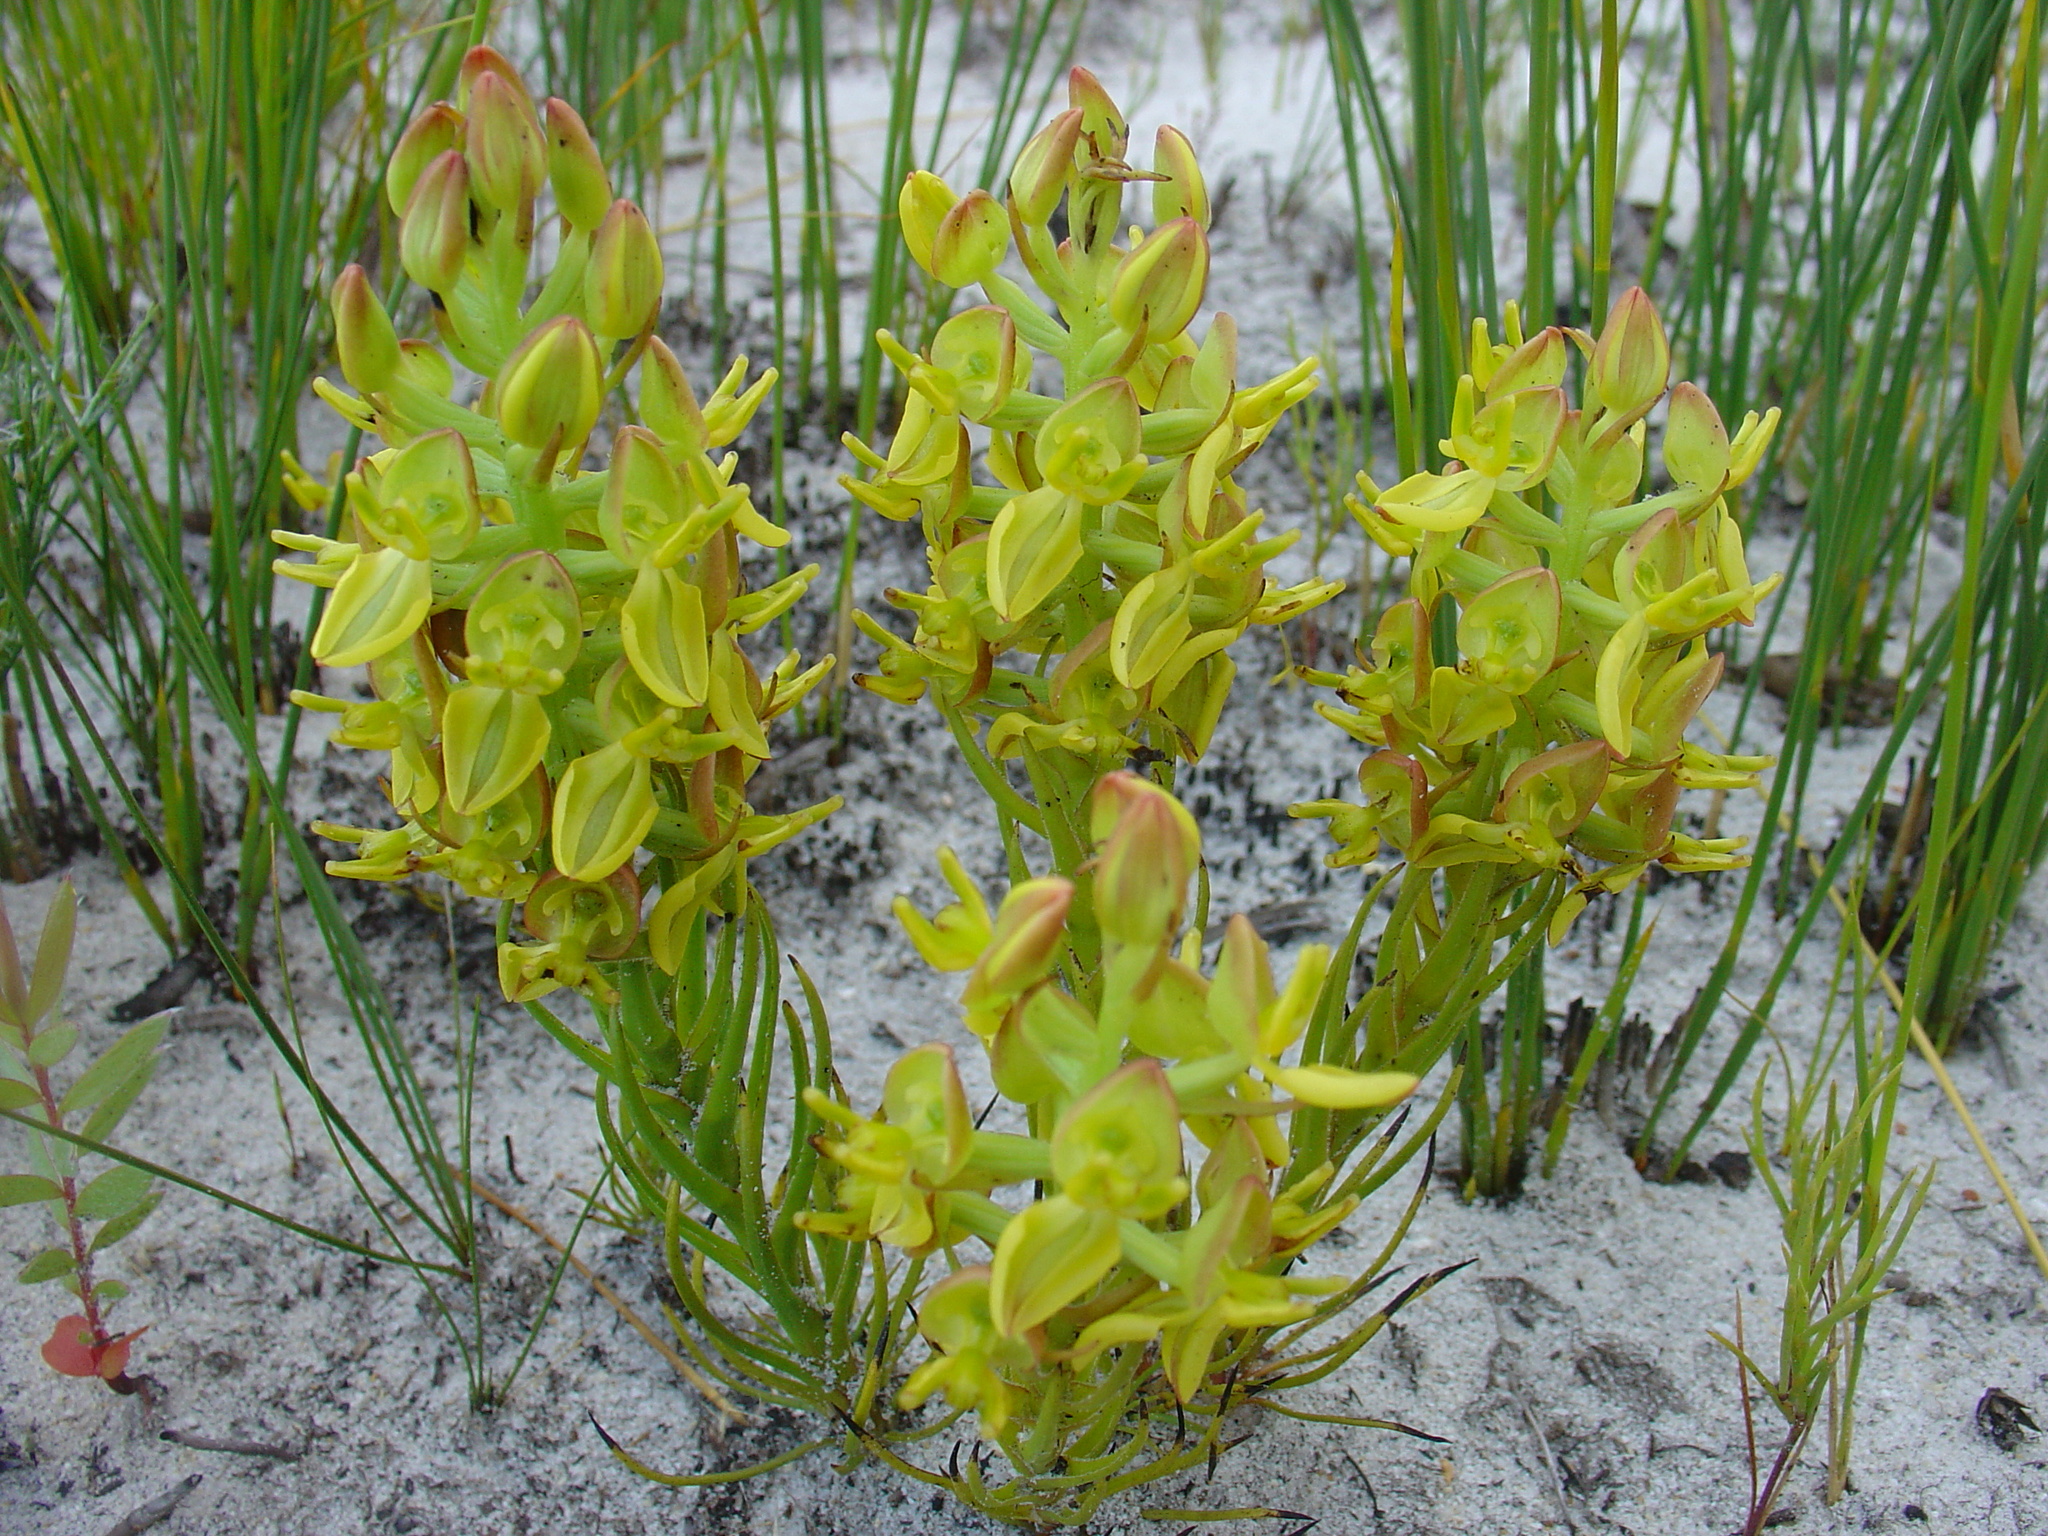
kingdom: Plantae
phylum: Tracheophyta
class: Liliopsida
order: Asparagales
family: Orchidaceae
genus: Ceratandra
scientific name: Ceratandra atrata
